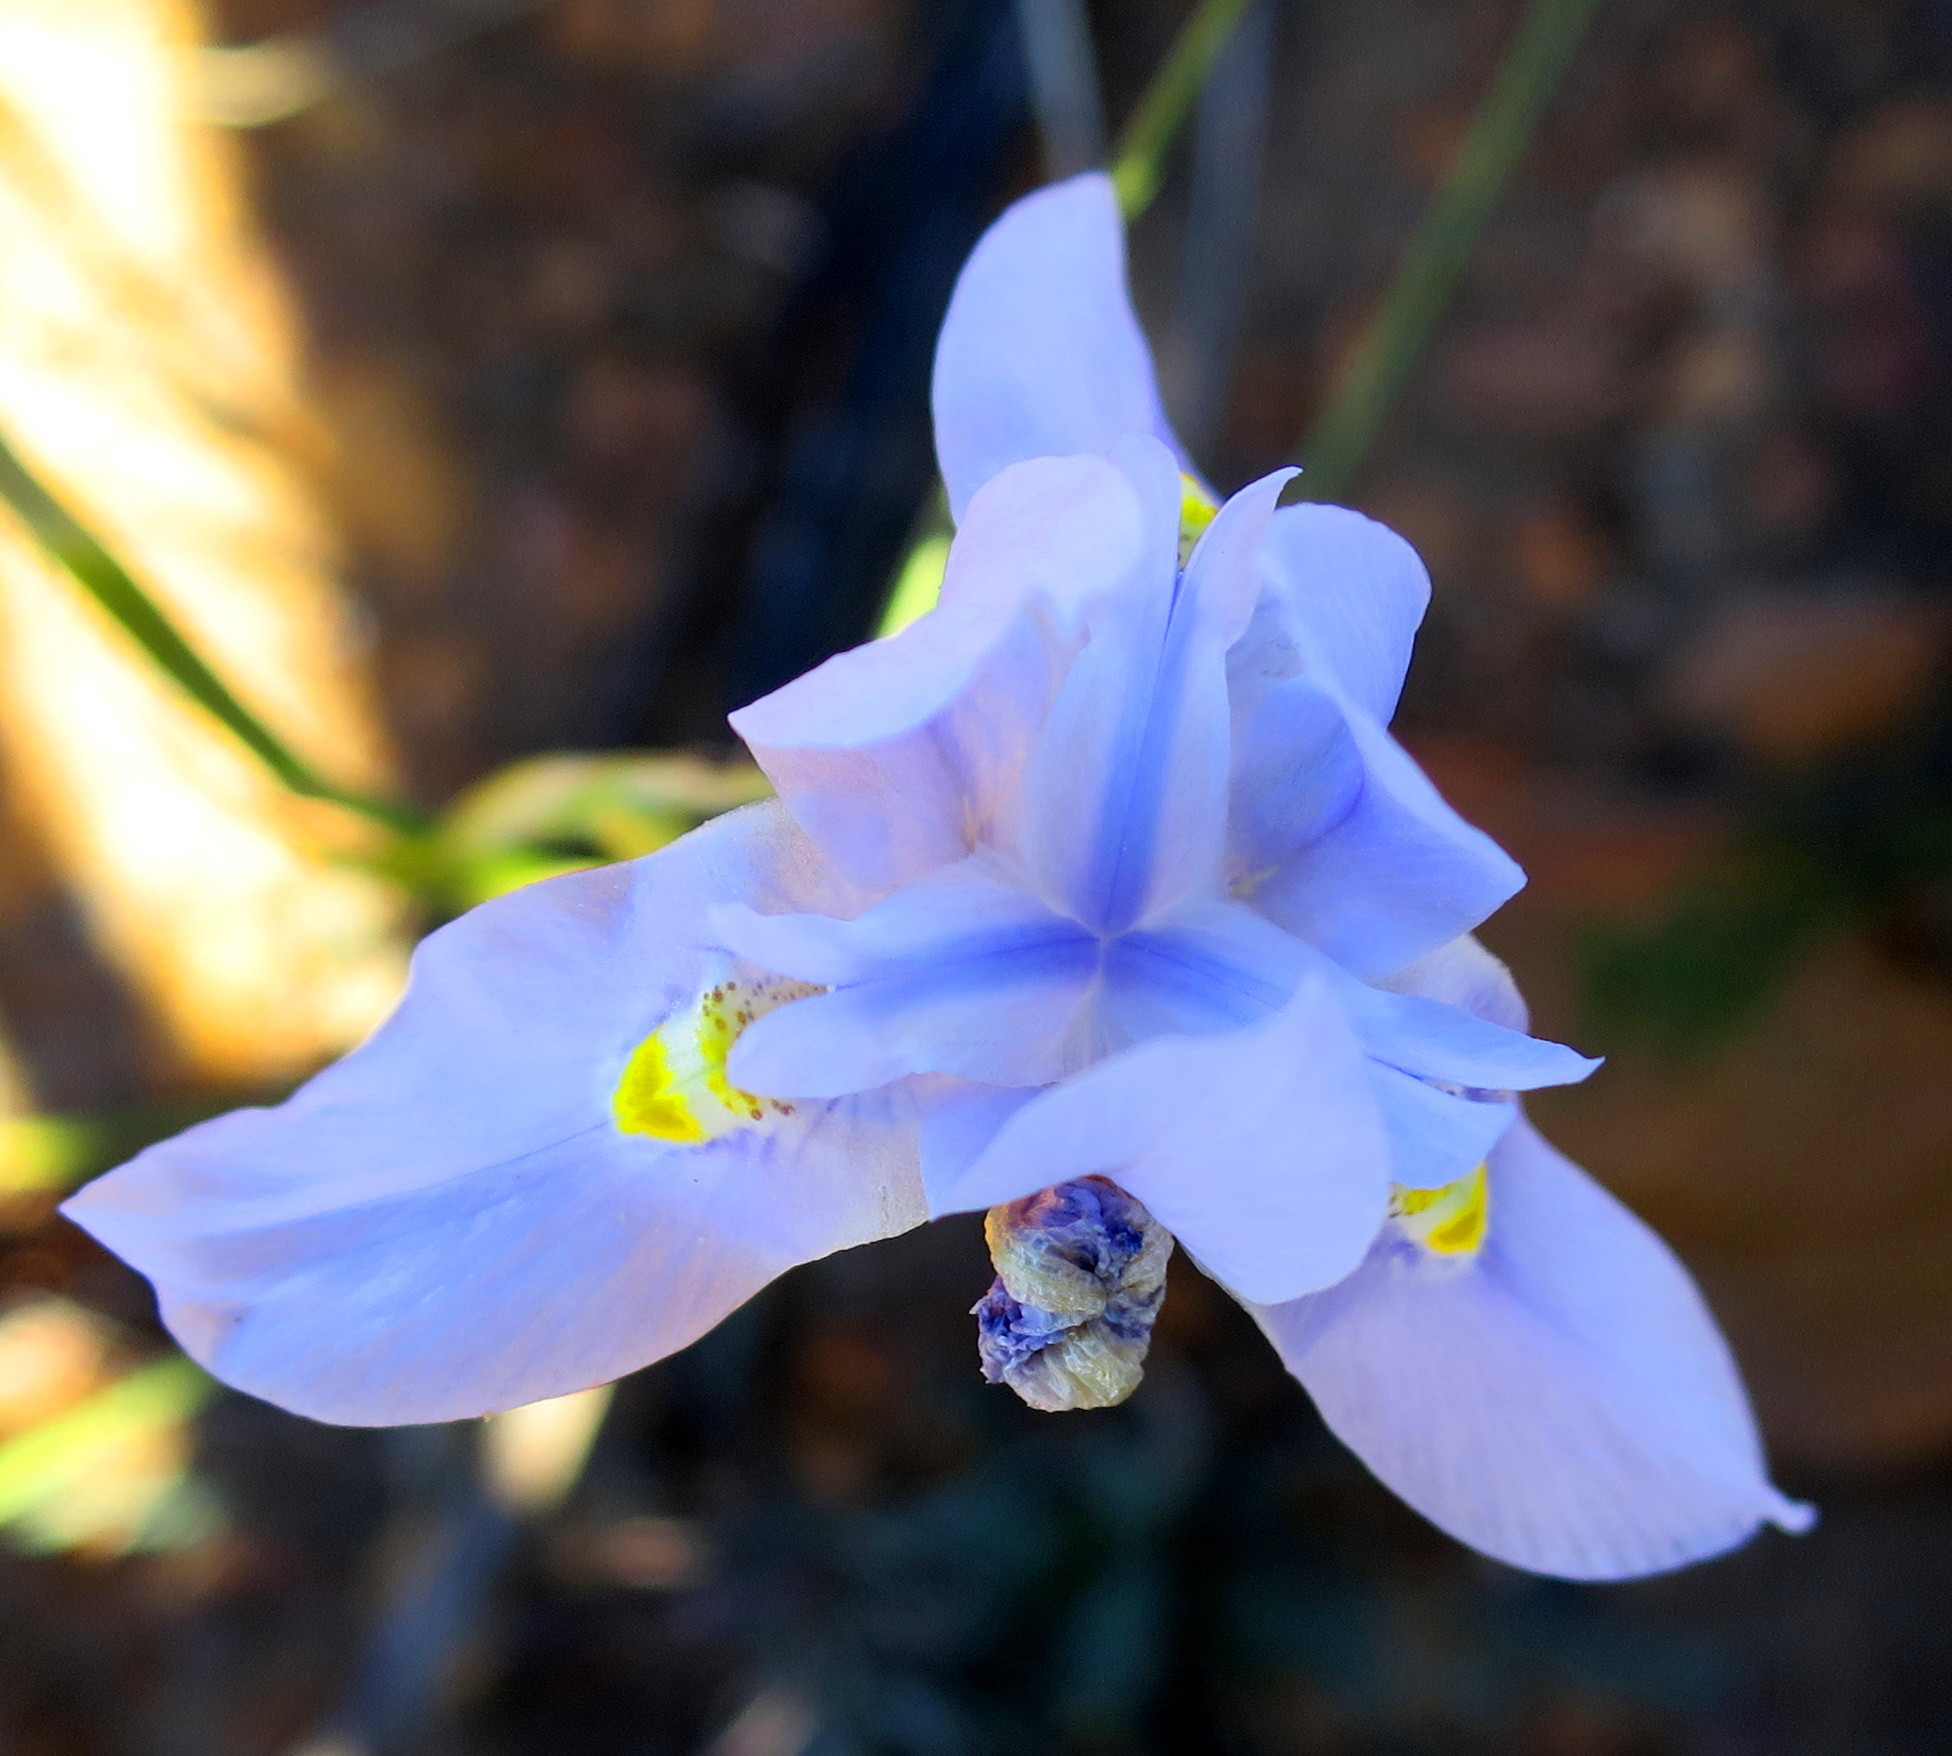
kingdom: Plantae
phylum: Tracheophyta
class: Liliopsida
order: Asparagales
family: Iridaceae
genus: Moraea
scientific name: Moraea polystachya
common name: Blue-tulip
